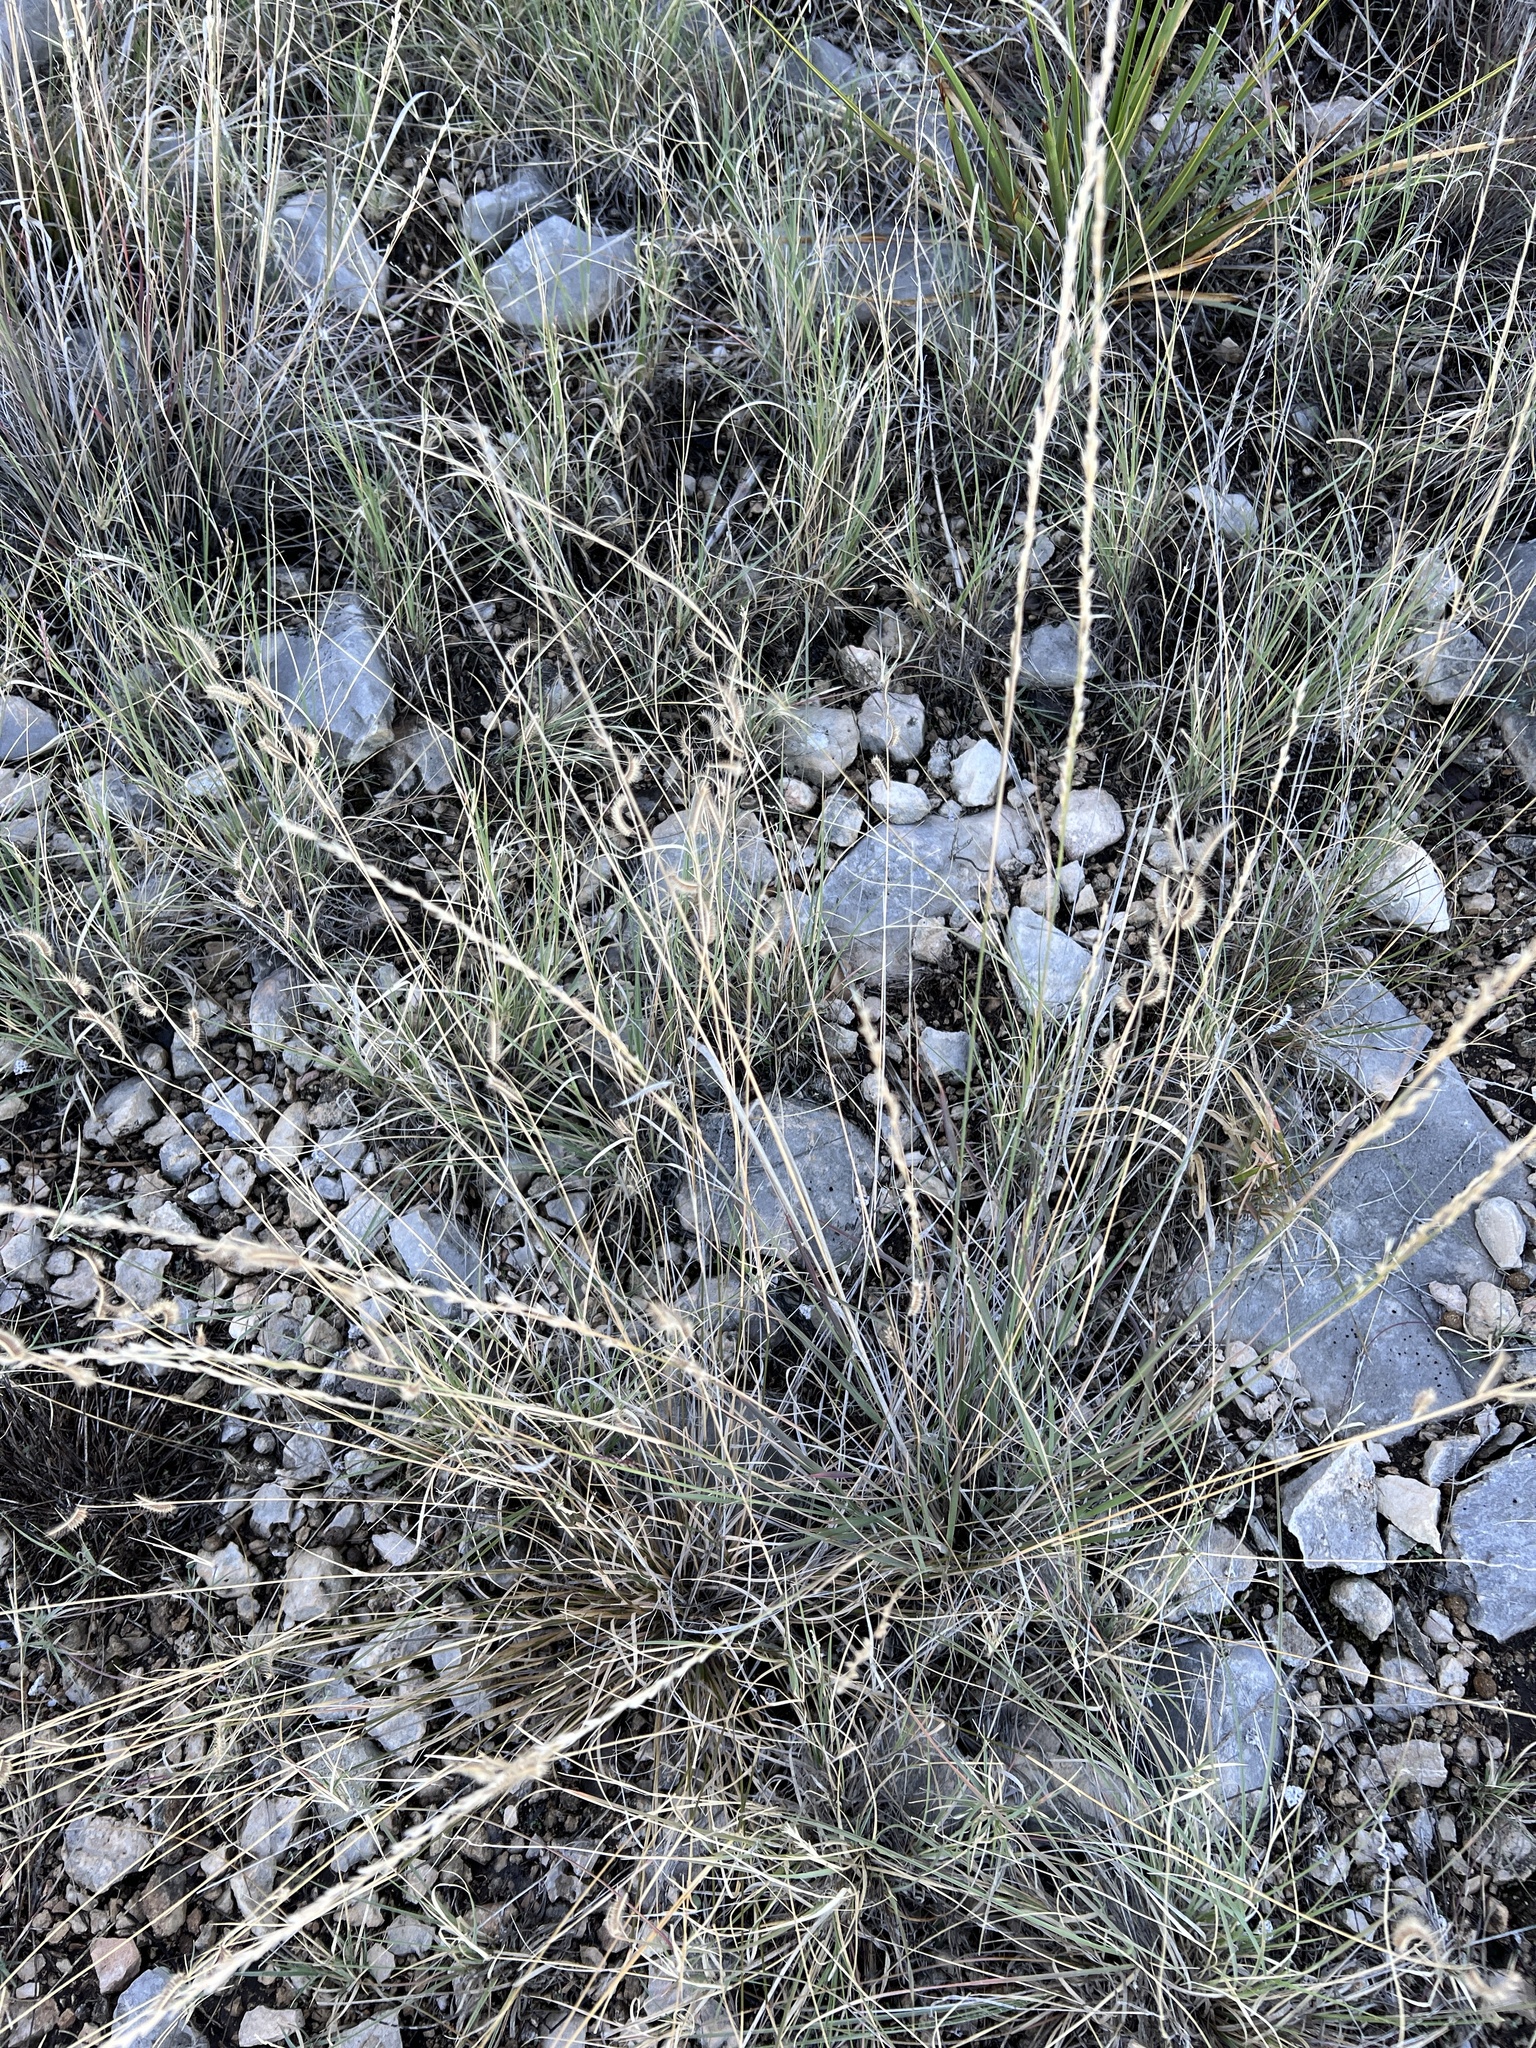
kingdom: Plantae
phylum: Tracheophyta
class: Liliopsida
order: Poales
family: Poaceae
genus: Bouteloua
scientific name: Bouteloua hirsuta
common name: Hairy grama
